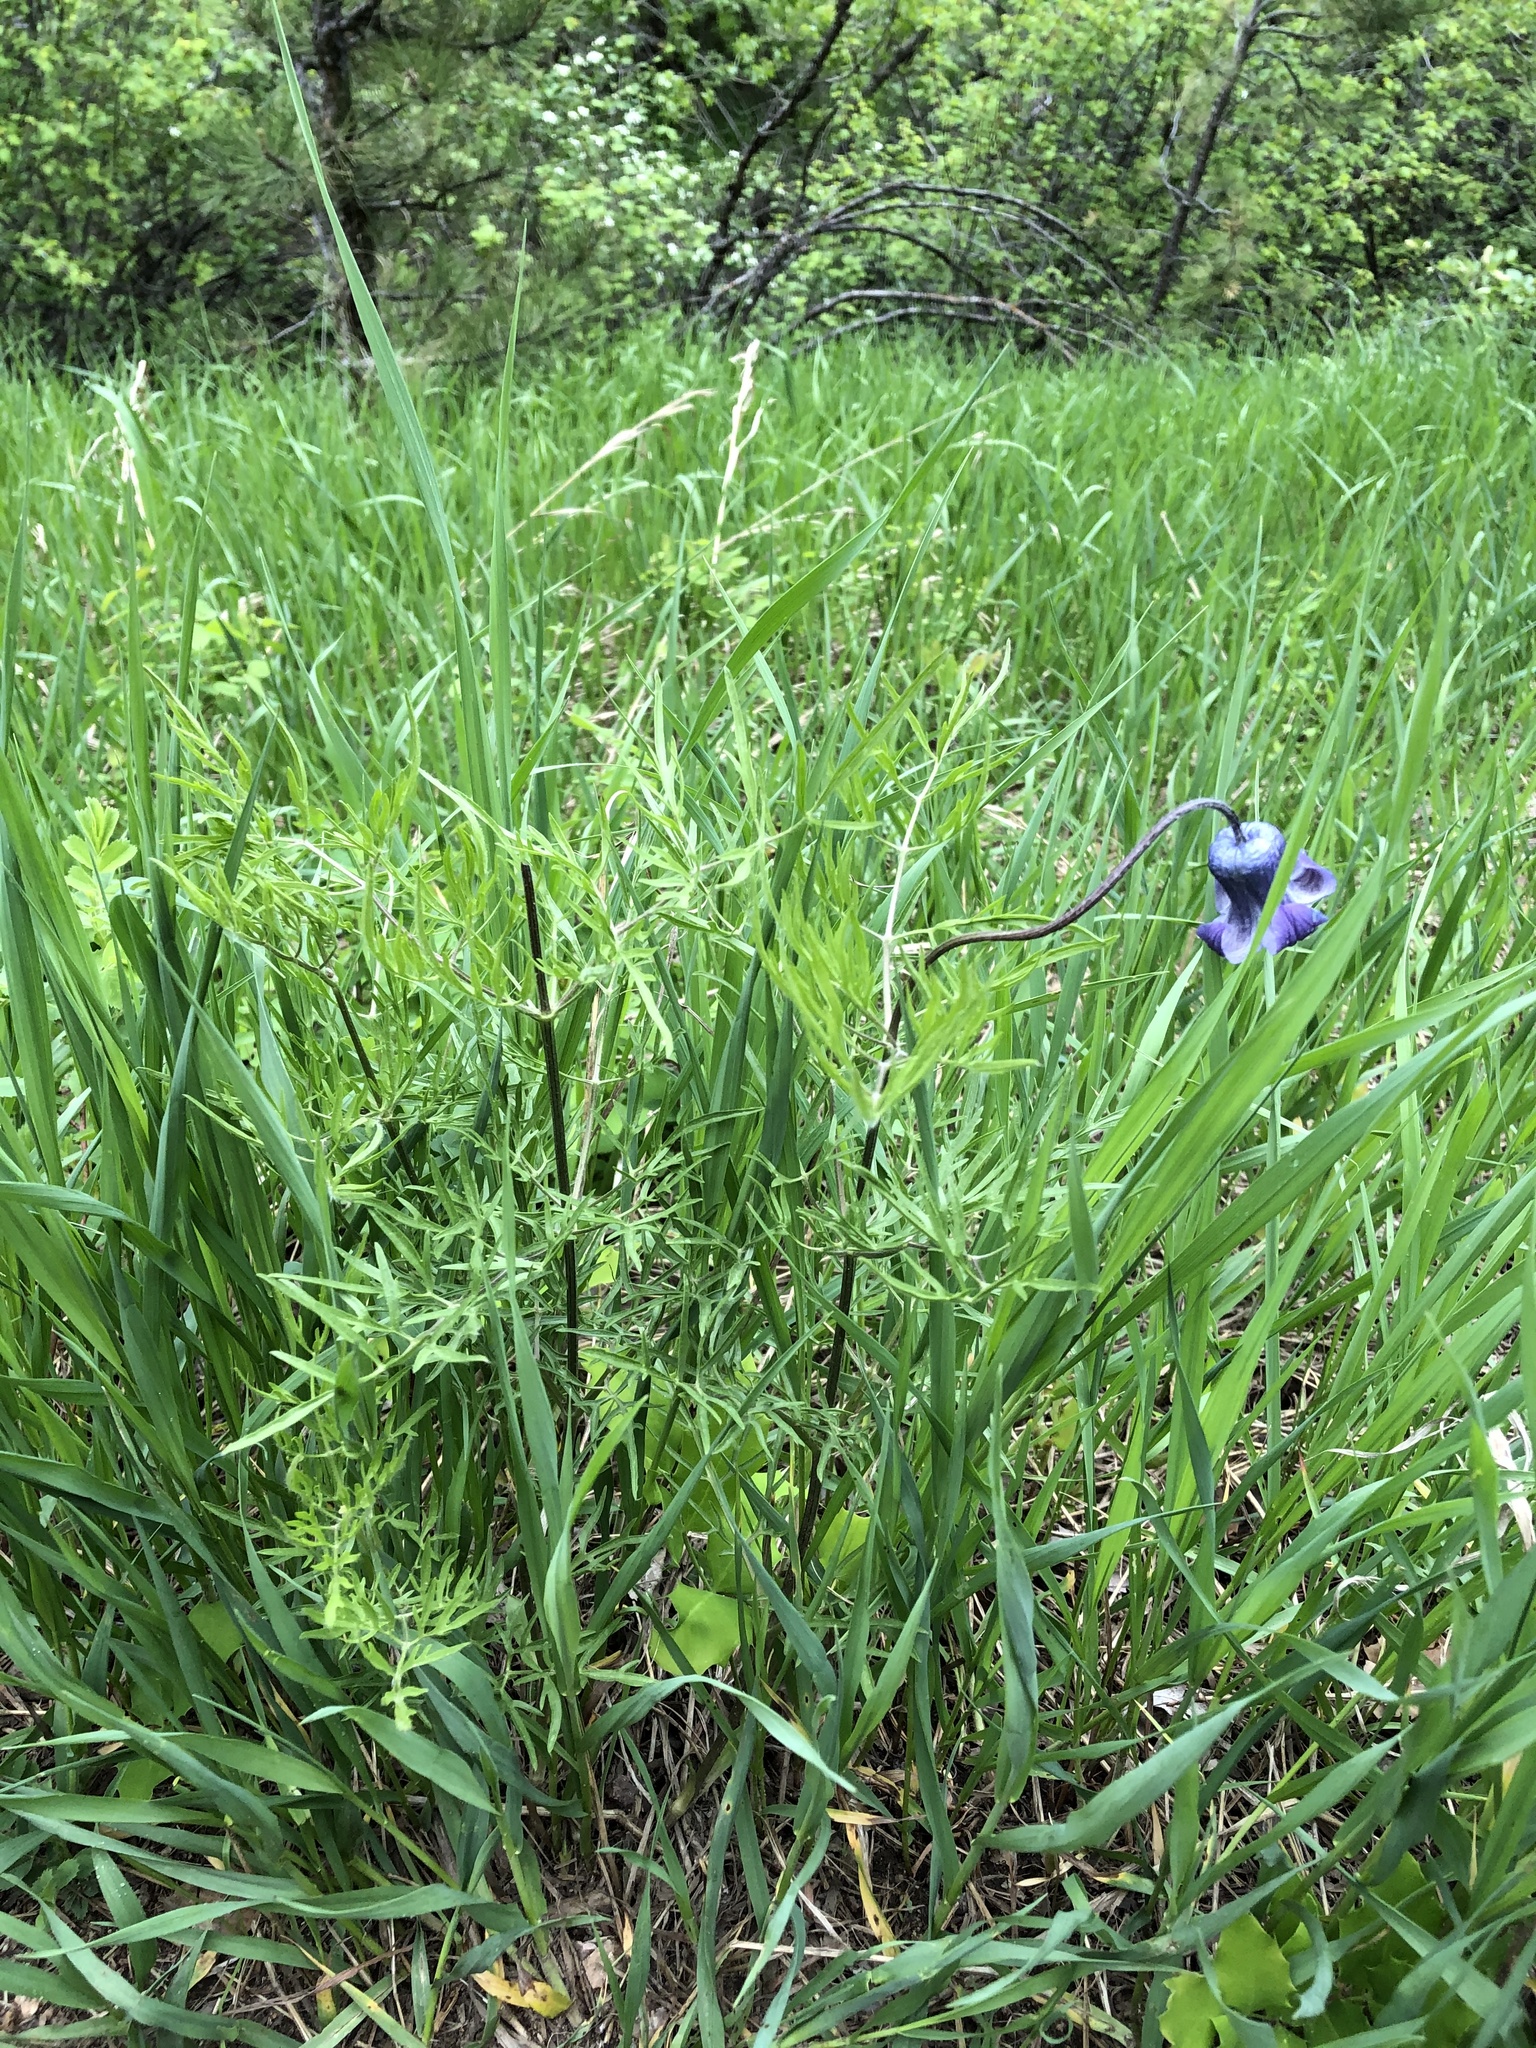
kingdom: Plantae
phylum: Tracheophyta
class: Magnoliopsida
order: Ranunculales
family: Ranunculaceae
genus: Clematis
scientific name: Clematis hirsutissima
